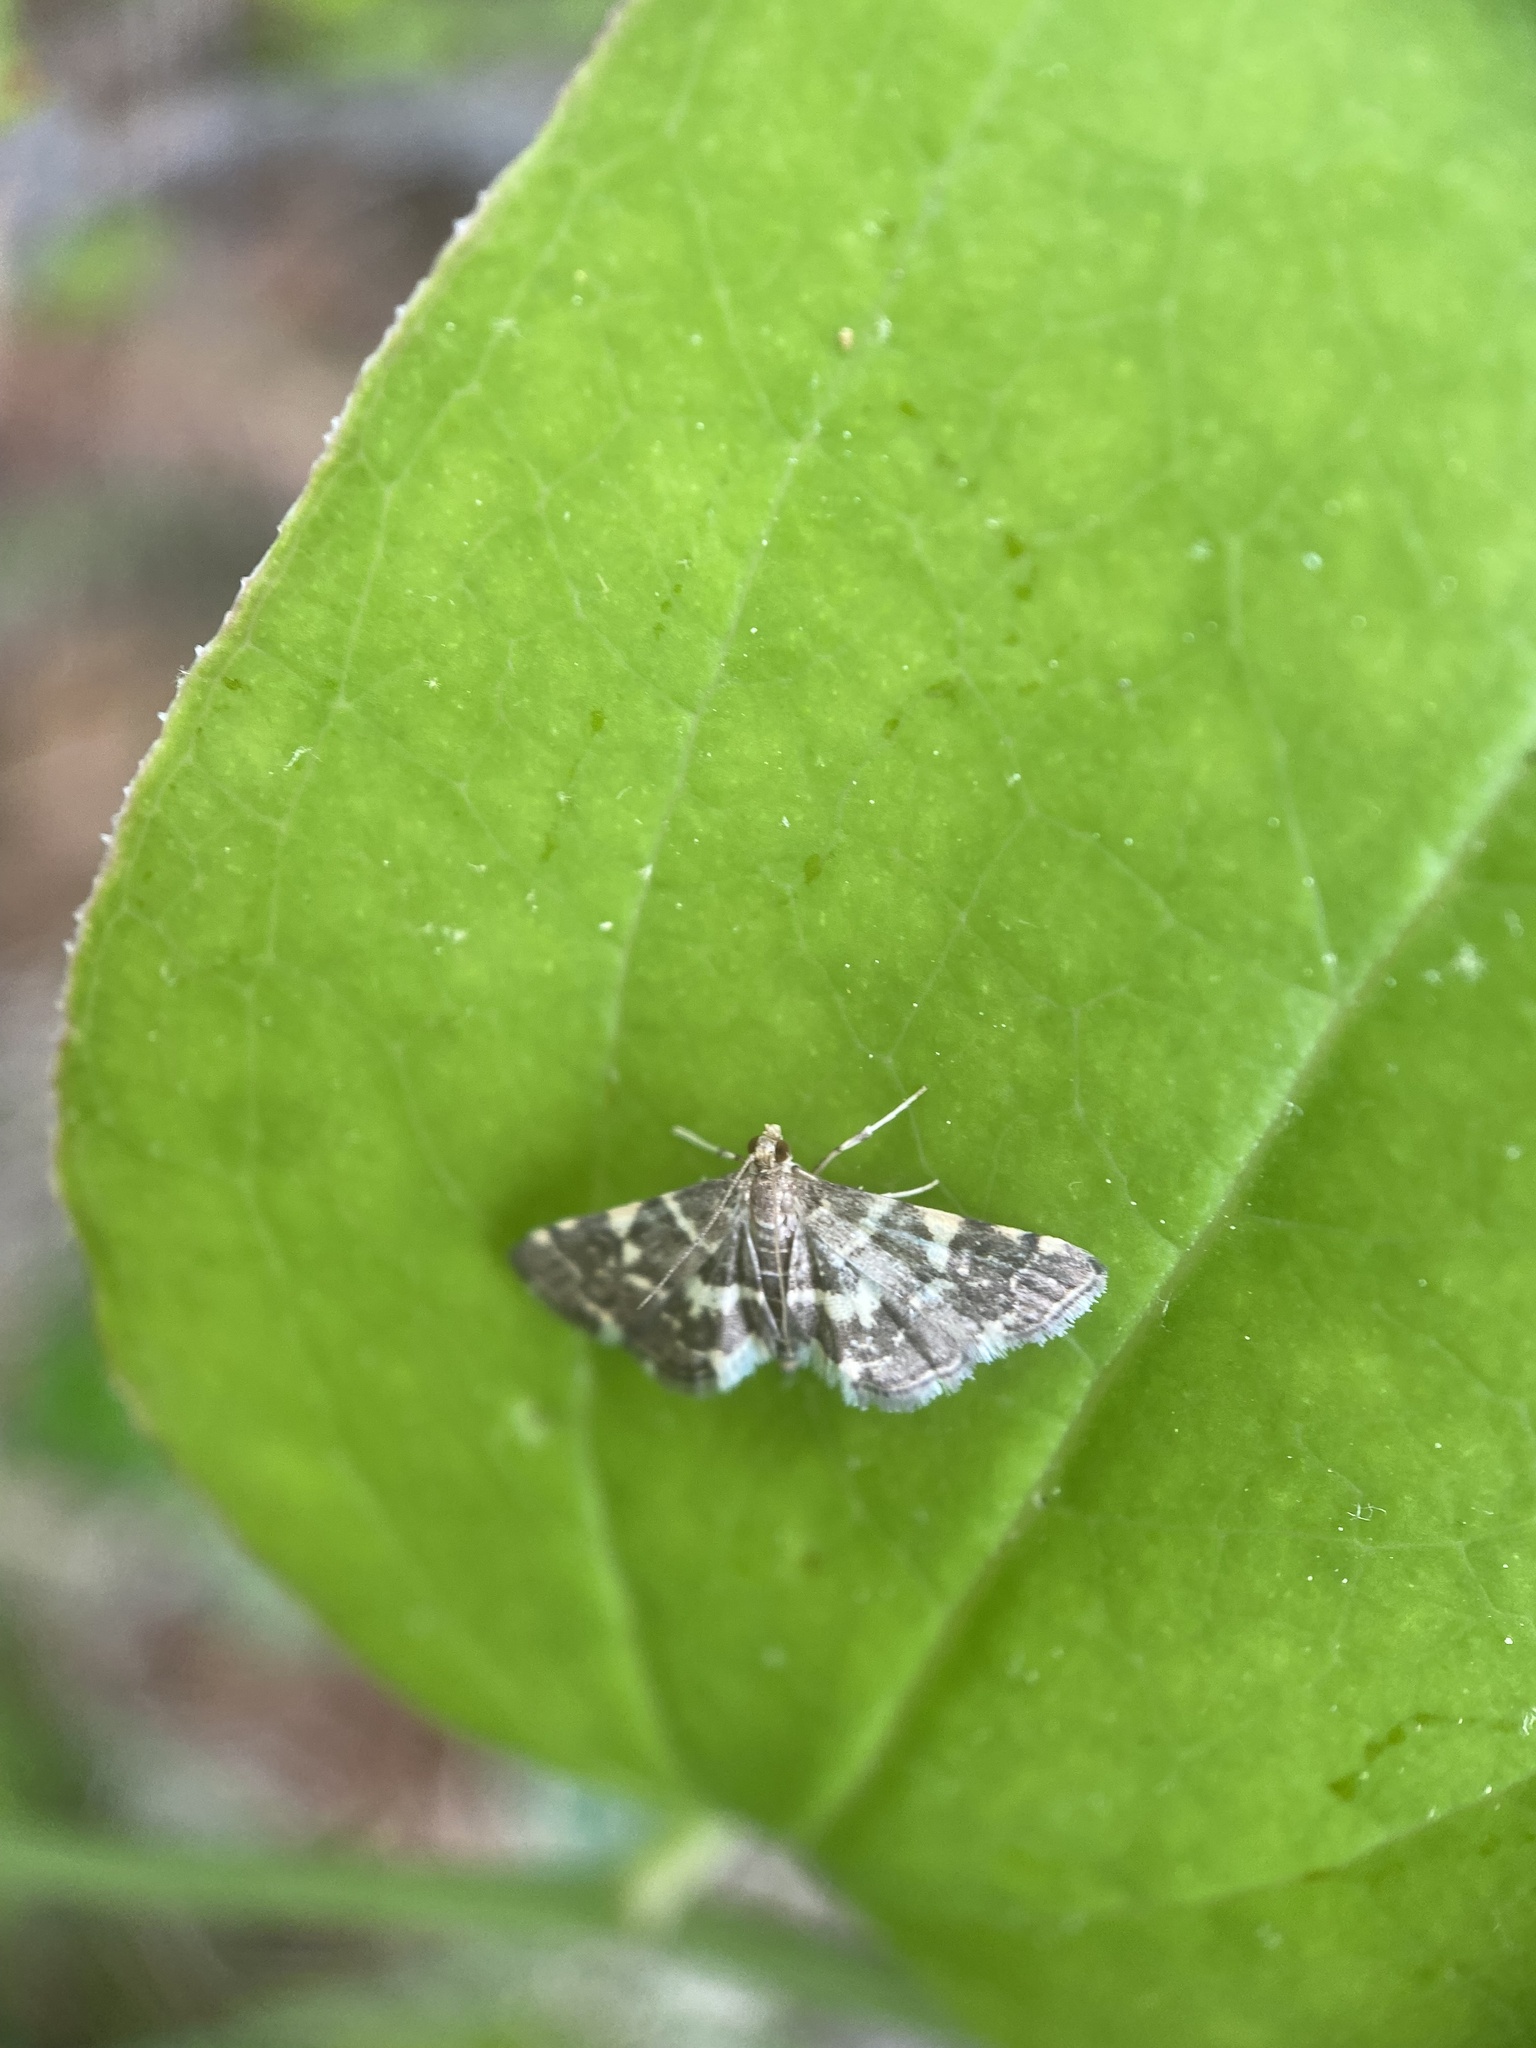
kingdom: Animalia
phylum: Arthropoda
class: Insecta
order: Lepidoptera
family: Crambidae
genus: Anageshna
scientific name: Anageshna primordialis
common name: Yellow-spotted webworm moth
